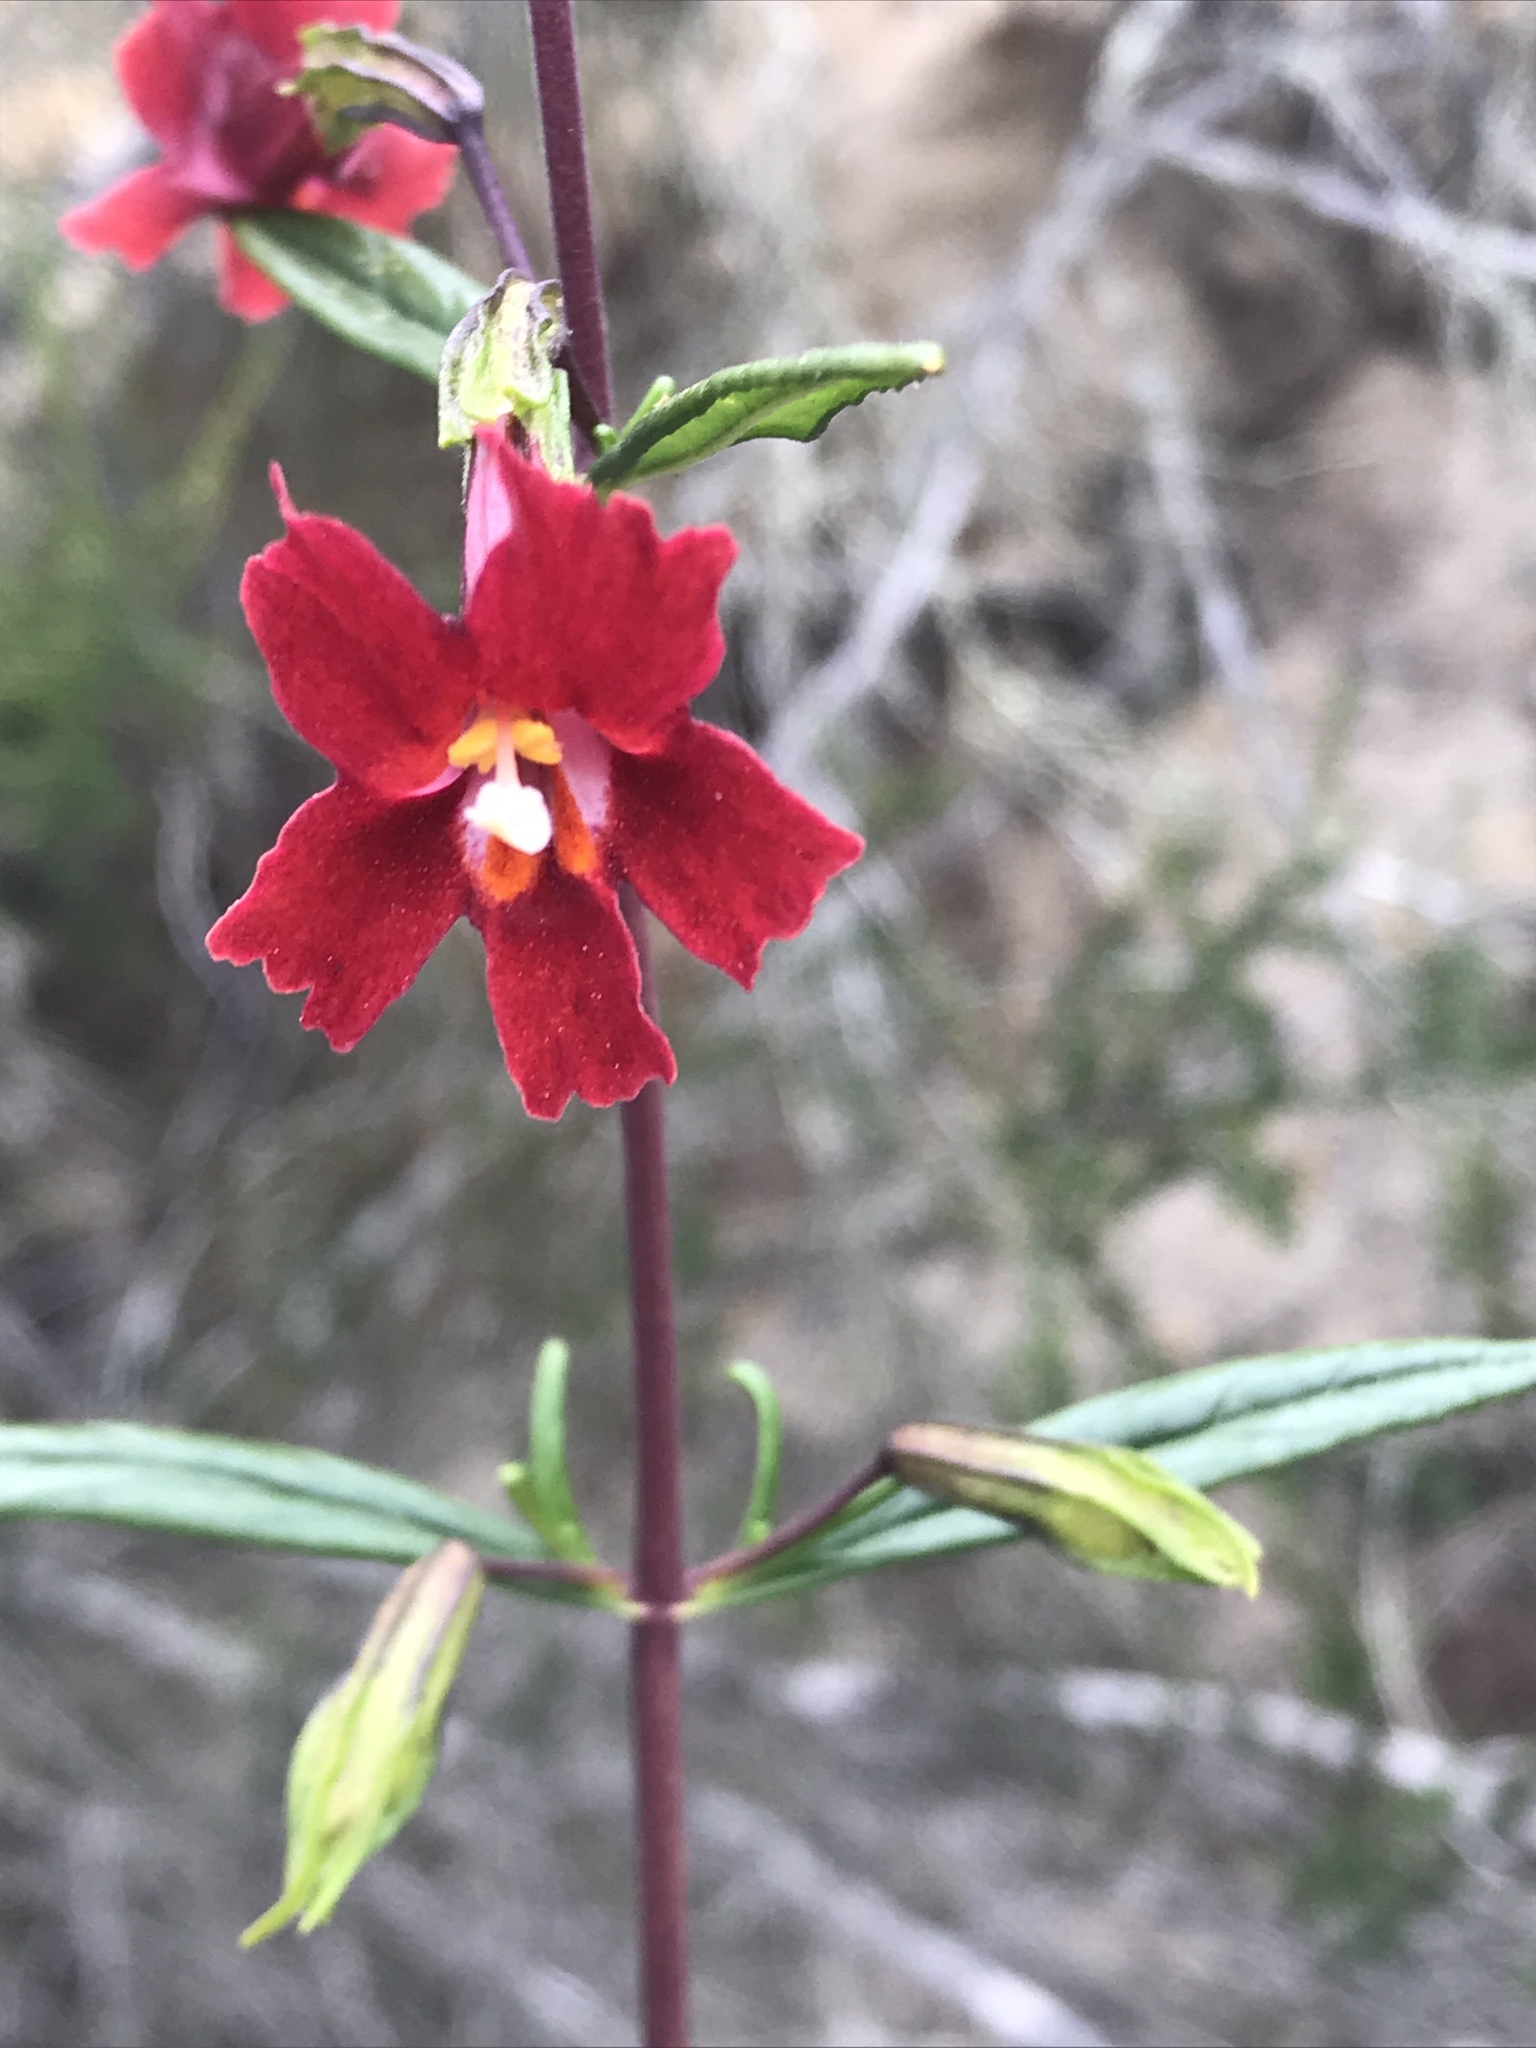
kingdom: Plantae
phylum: Tracheophyta
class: Magnoliopsida
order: Lamiales
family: Phrymaceae
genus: Diplacus
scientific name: Diplacus puniceus
